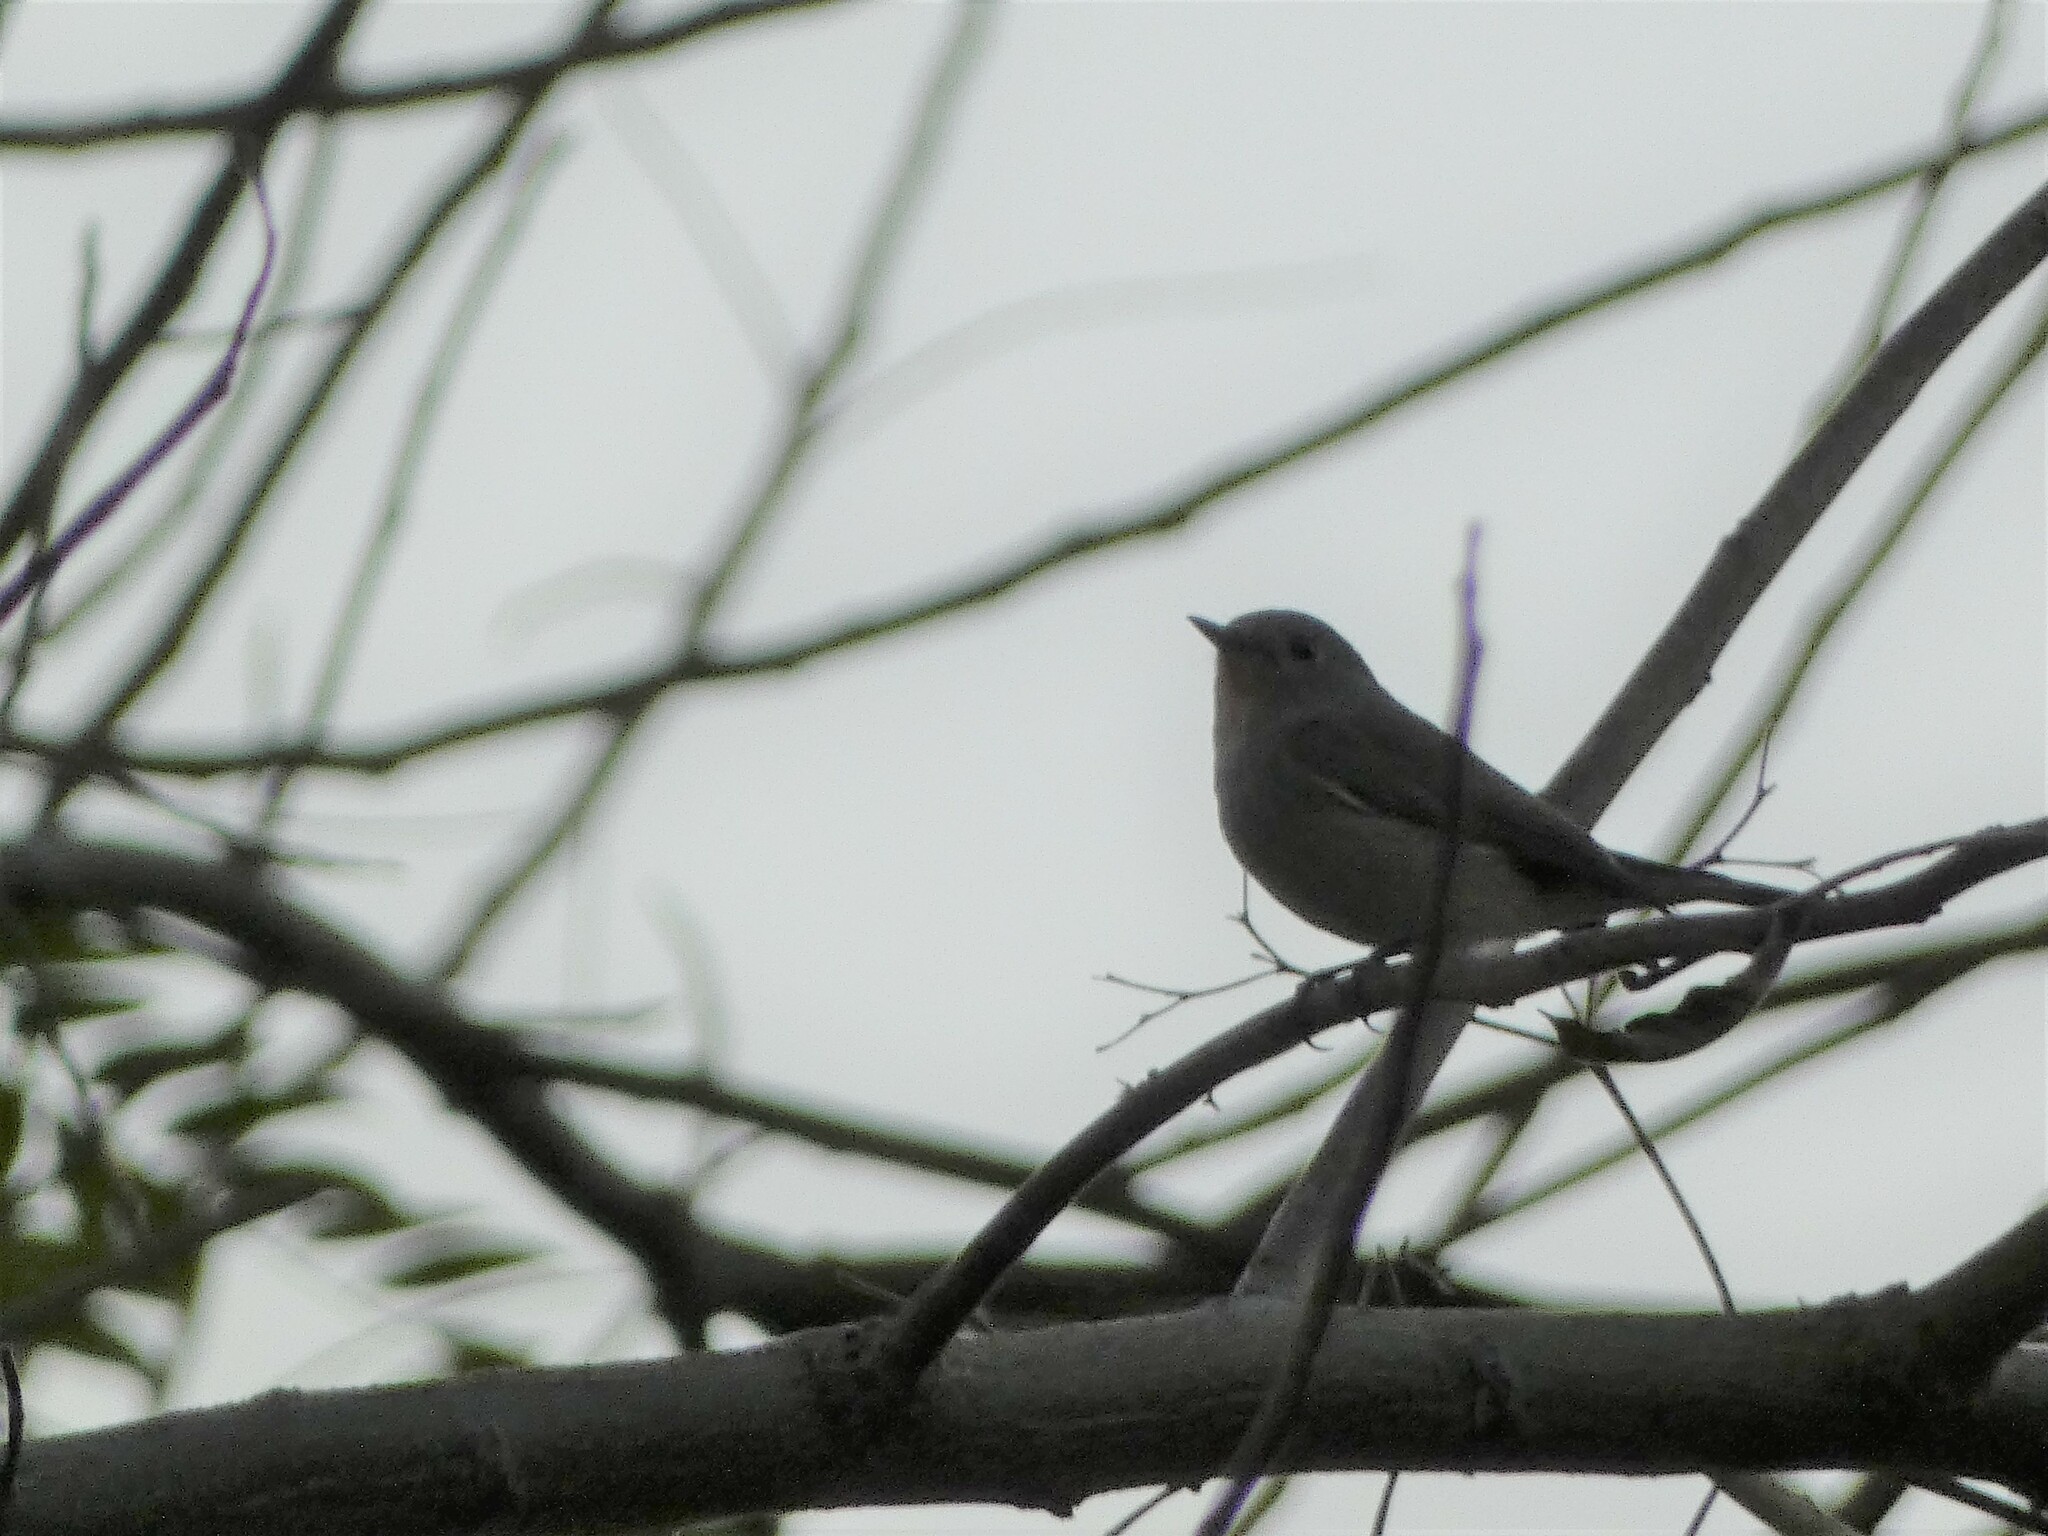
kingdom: Animalia
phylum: Chordata
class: Aves
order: Passeriformes
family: Muscicapidae
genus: Ficedula
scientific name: Ficedula albicilla
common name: Taiga flycatcher
